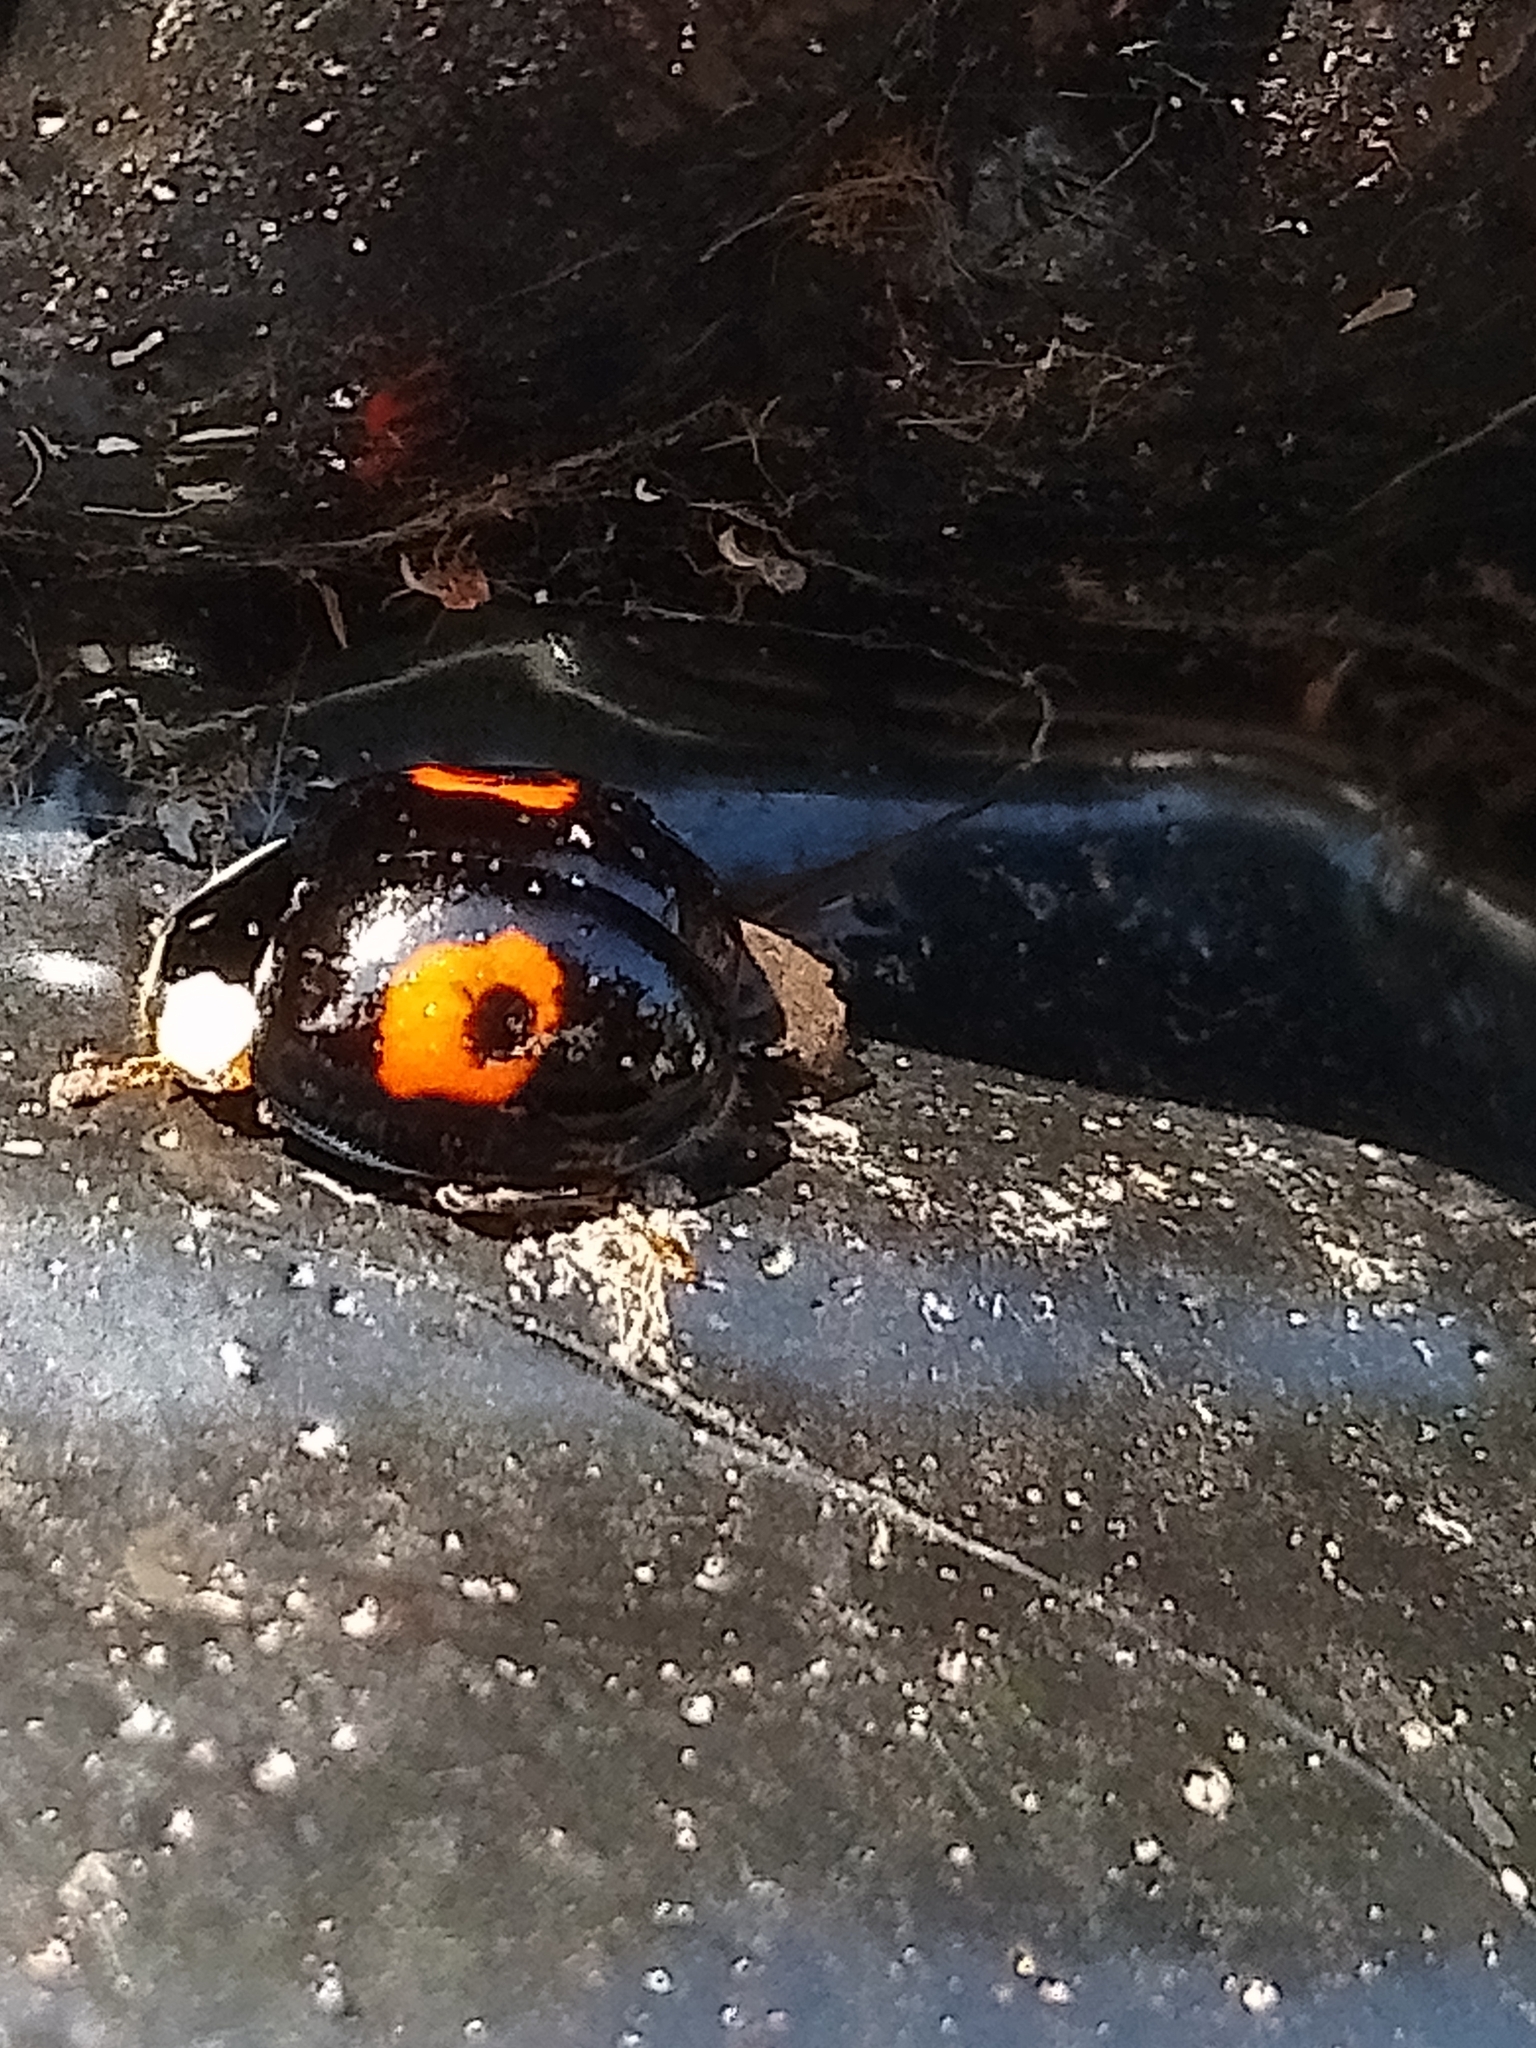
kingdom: Animalia
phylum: Arthropoda
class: Insecta
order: Coleoptera
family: Coccinellidae
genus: Harmonia
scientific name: Harmonia axyridis
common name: Harlequin ladybird
